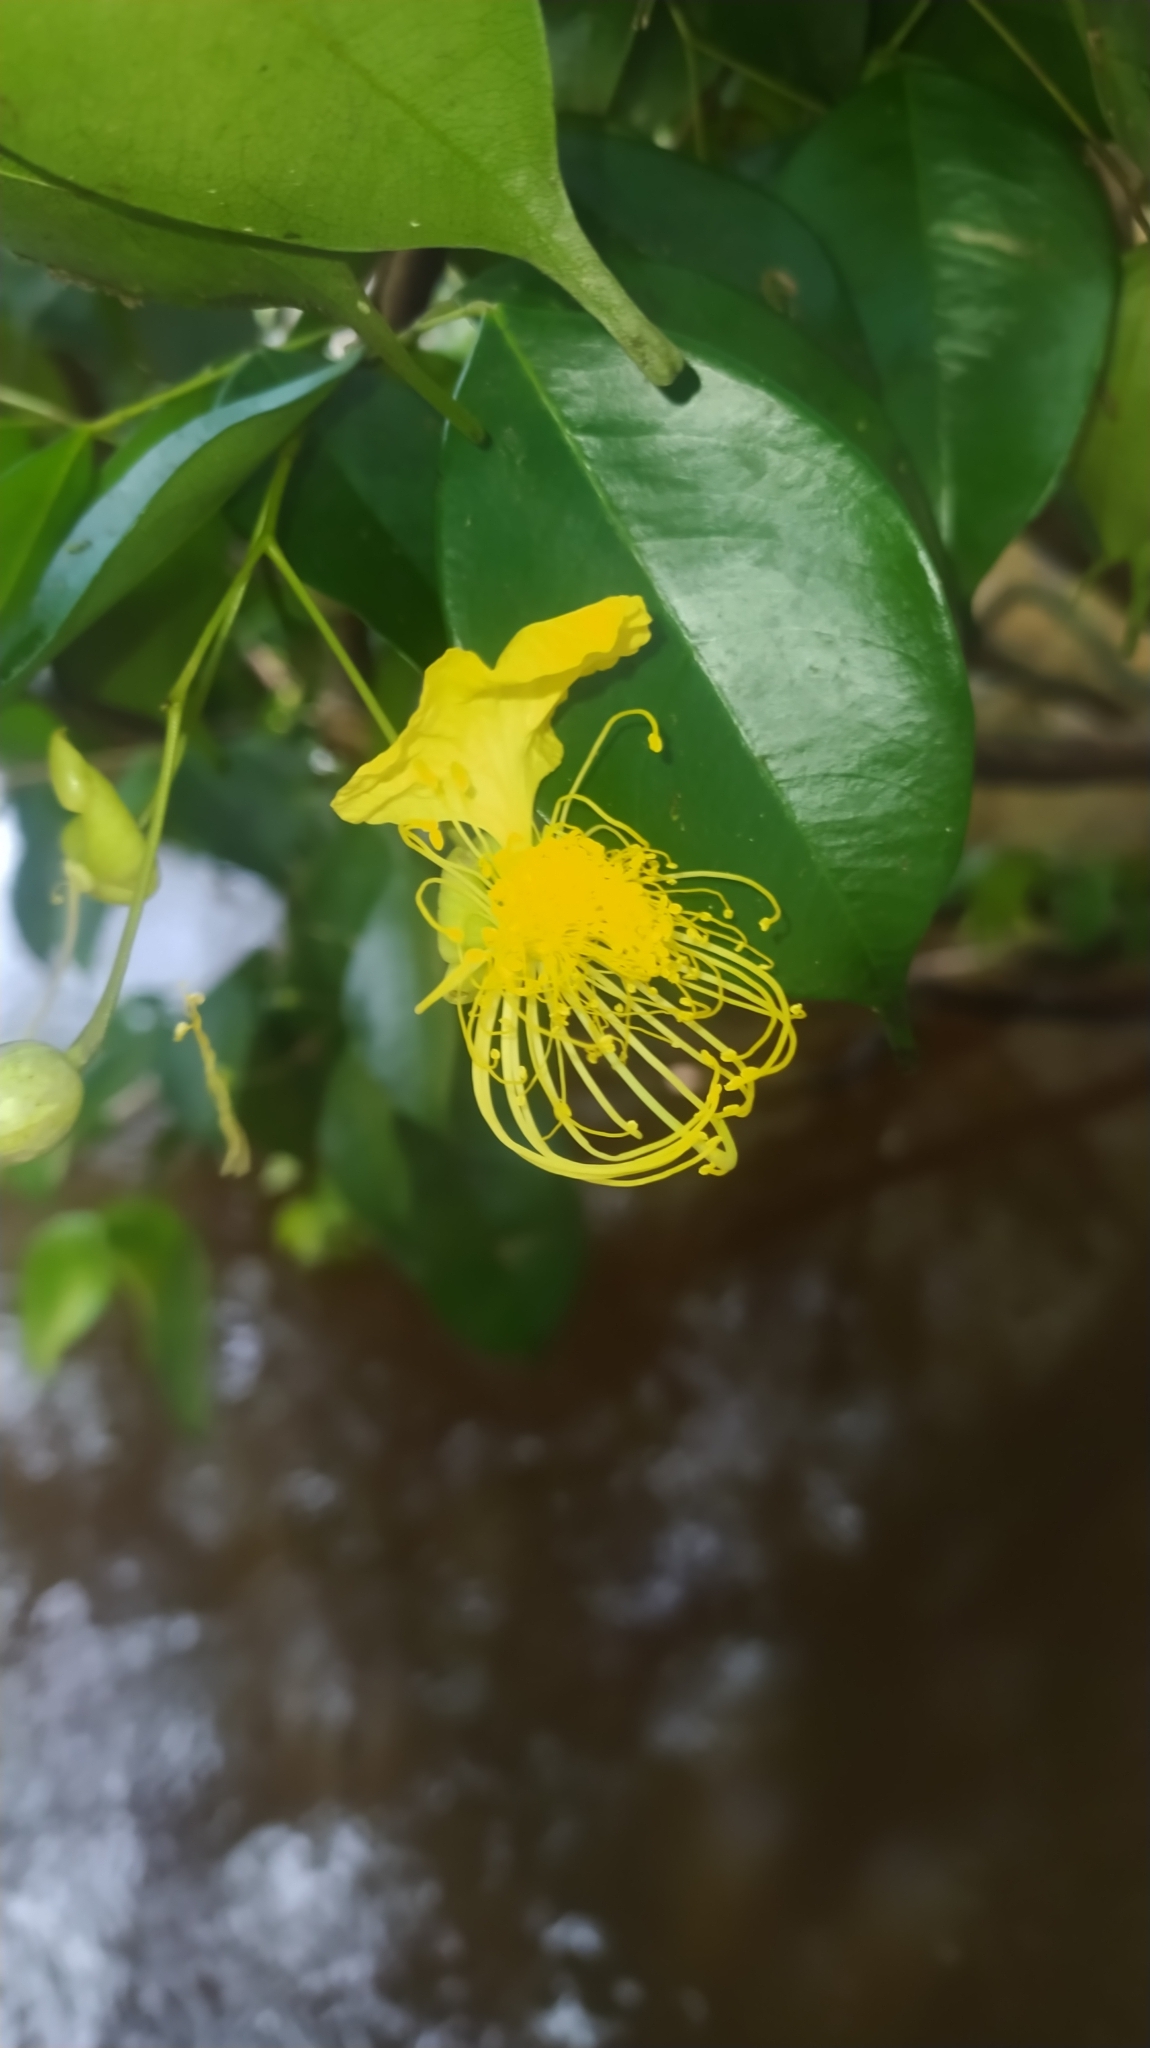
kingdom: Plantae
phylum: Tracheophyta
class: Magnoliopsida
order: Fabales
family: Fabaceae
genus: Swartzia
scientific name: Swartzia aptera
